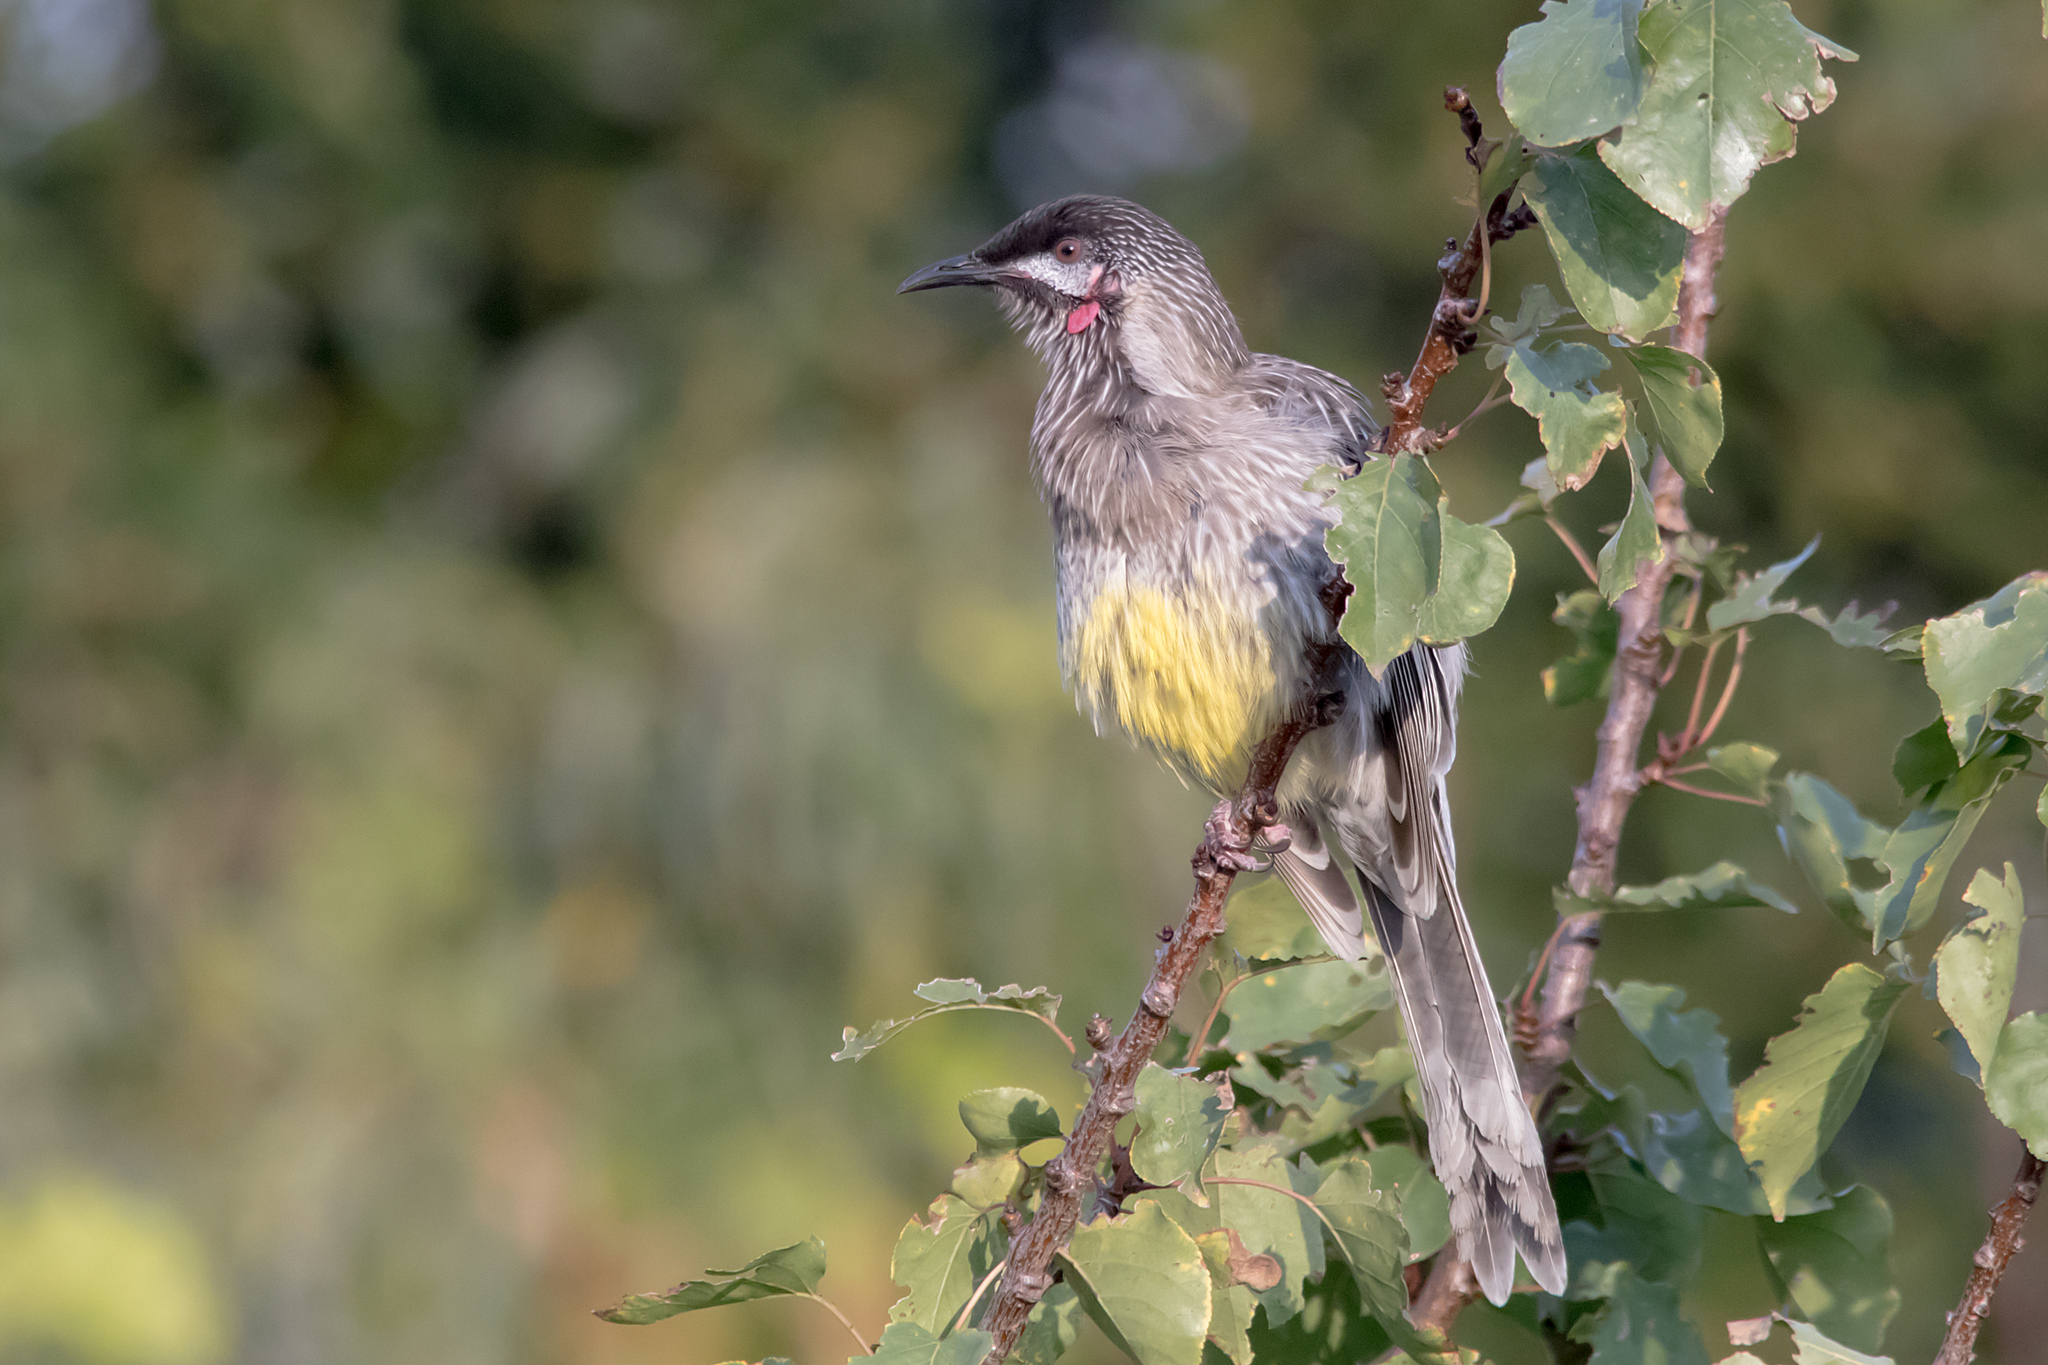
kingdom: Animalia
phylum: Chordata
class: Aves
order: Passeriformes
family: Meliphagidae
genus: Anthochaera
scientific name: Anthochaera carunculata
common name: Red wattlebird
